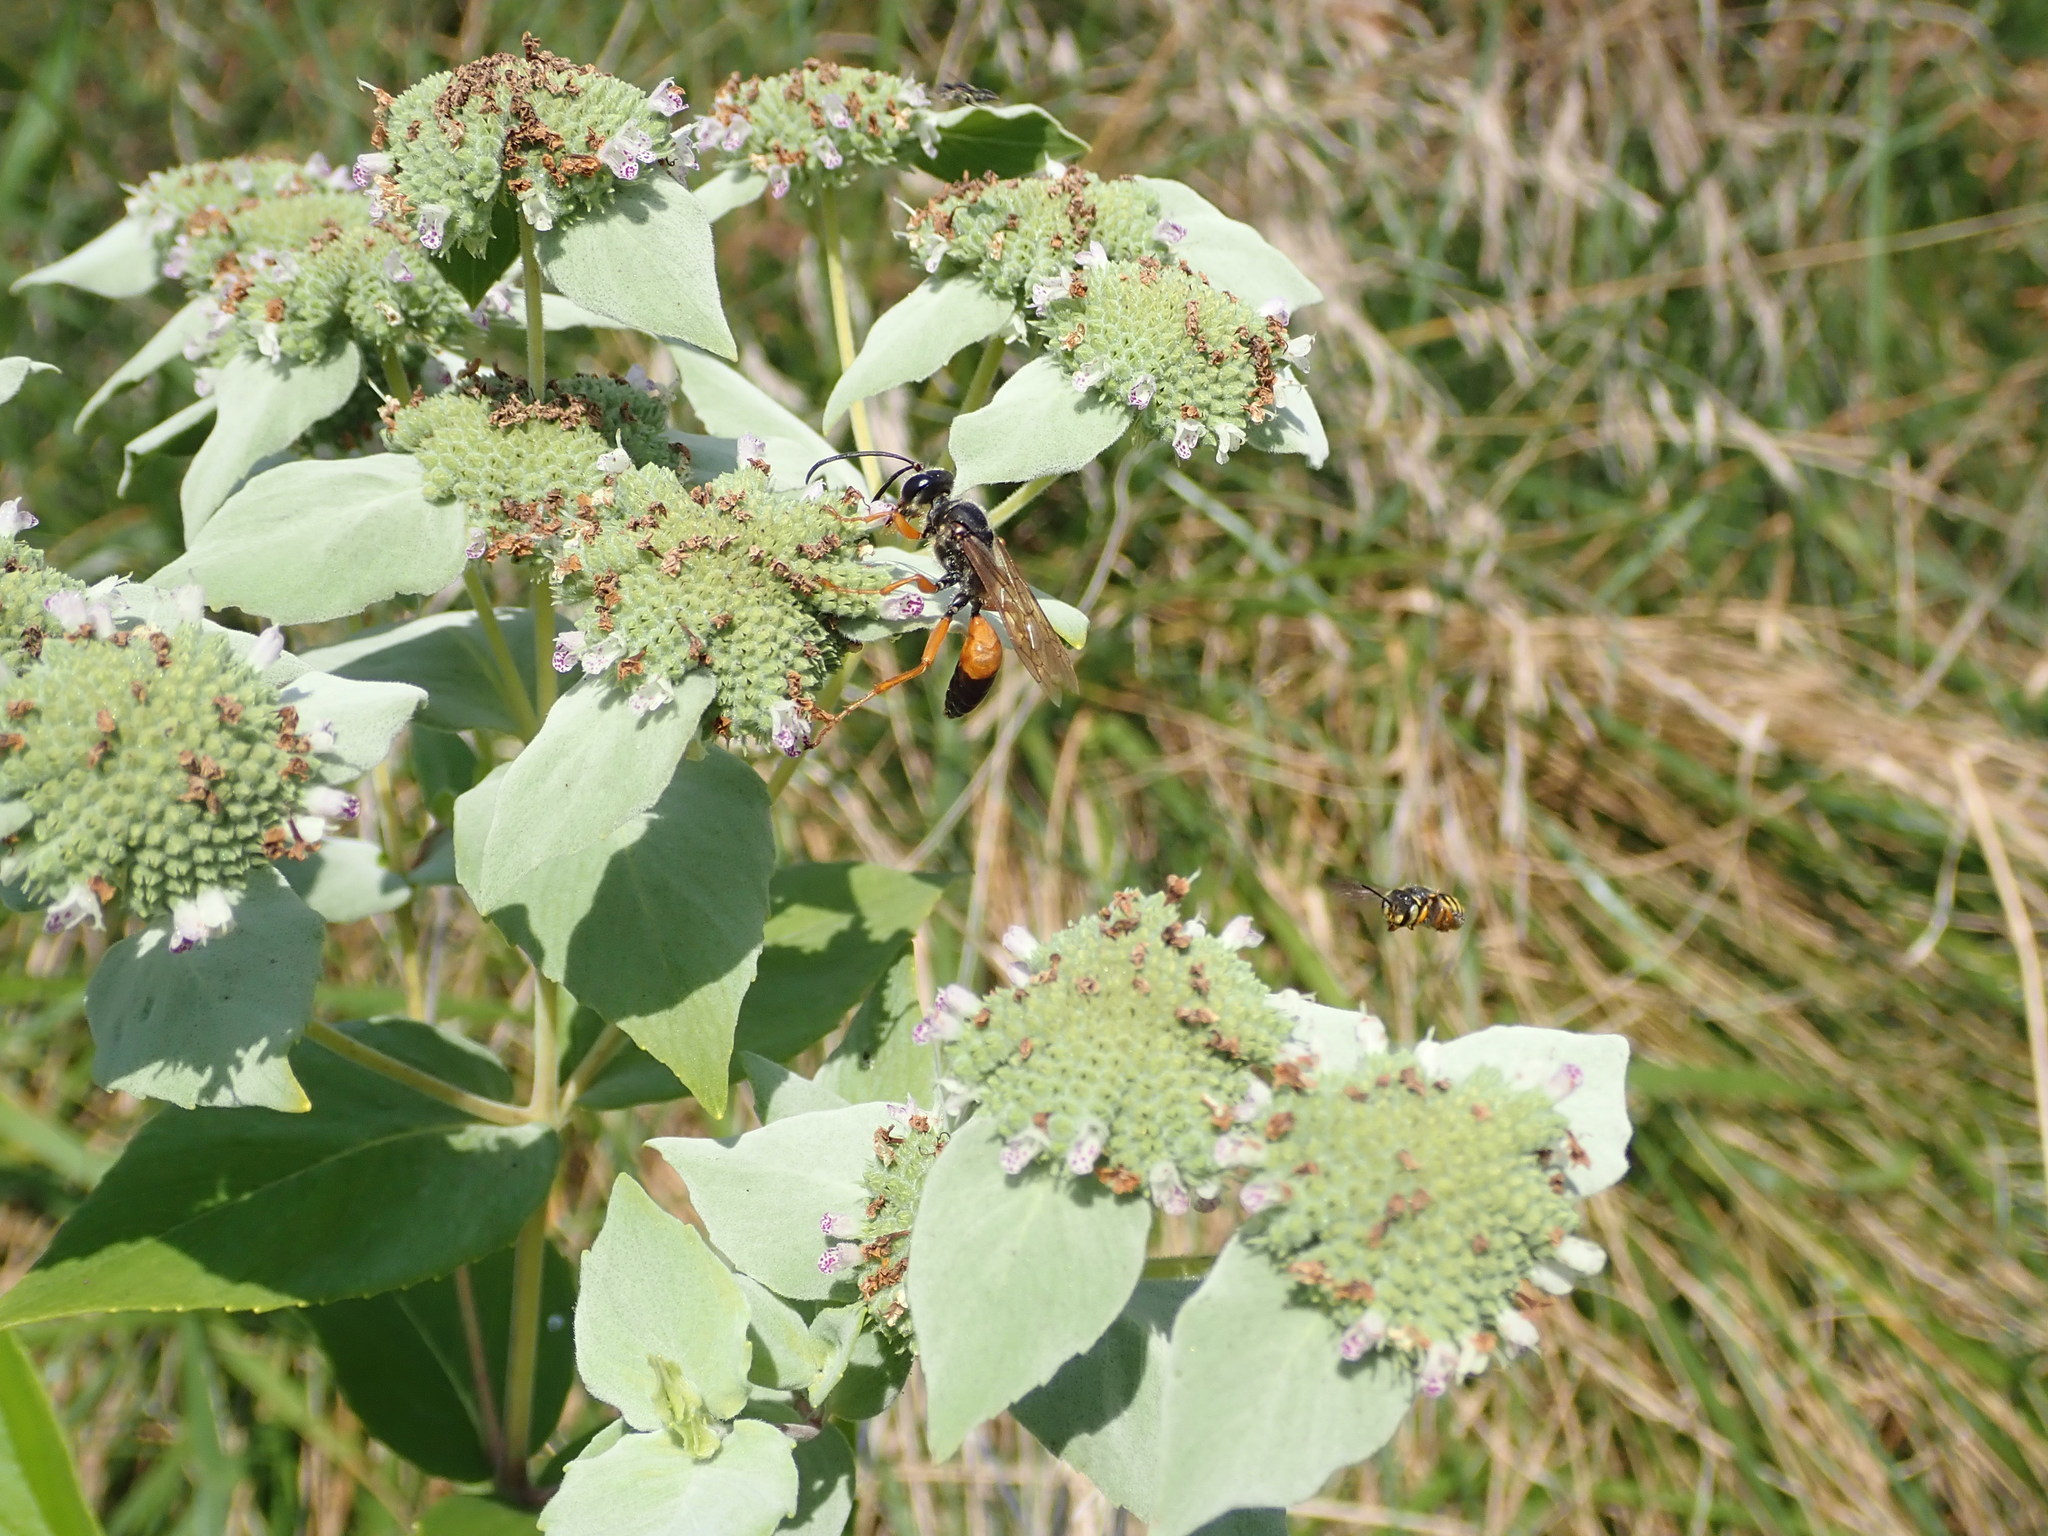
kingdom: Animalia
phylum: Arthropoda
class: Insecta
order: Hymenoptera
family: Sphecidae
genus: Sphex
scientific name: Sphex ichneumoneus
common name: Great golden digger wasp
